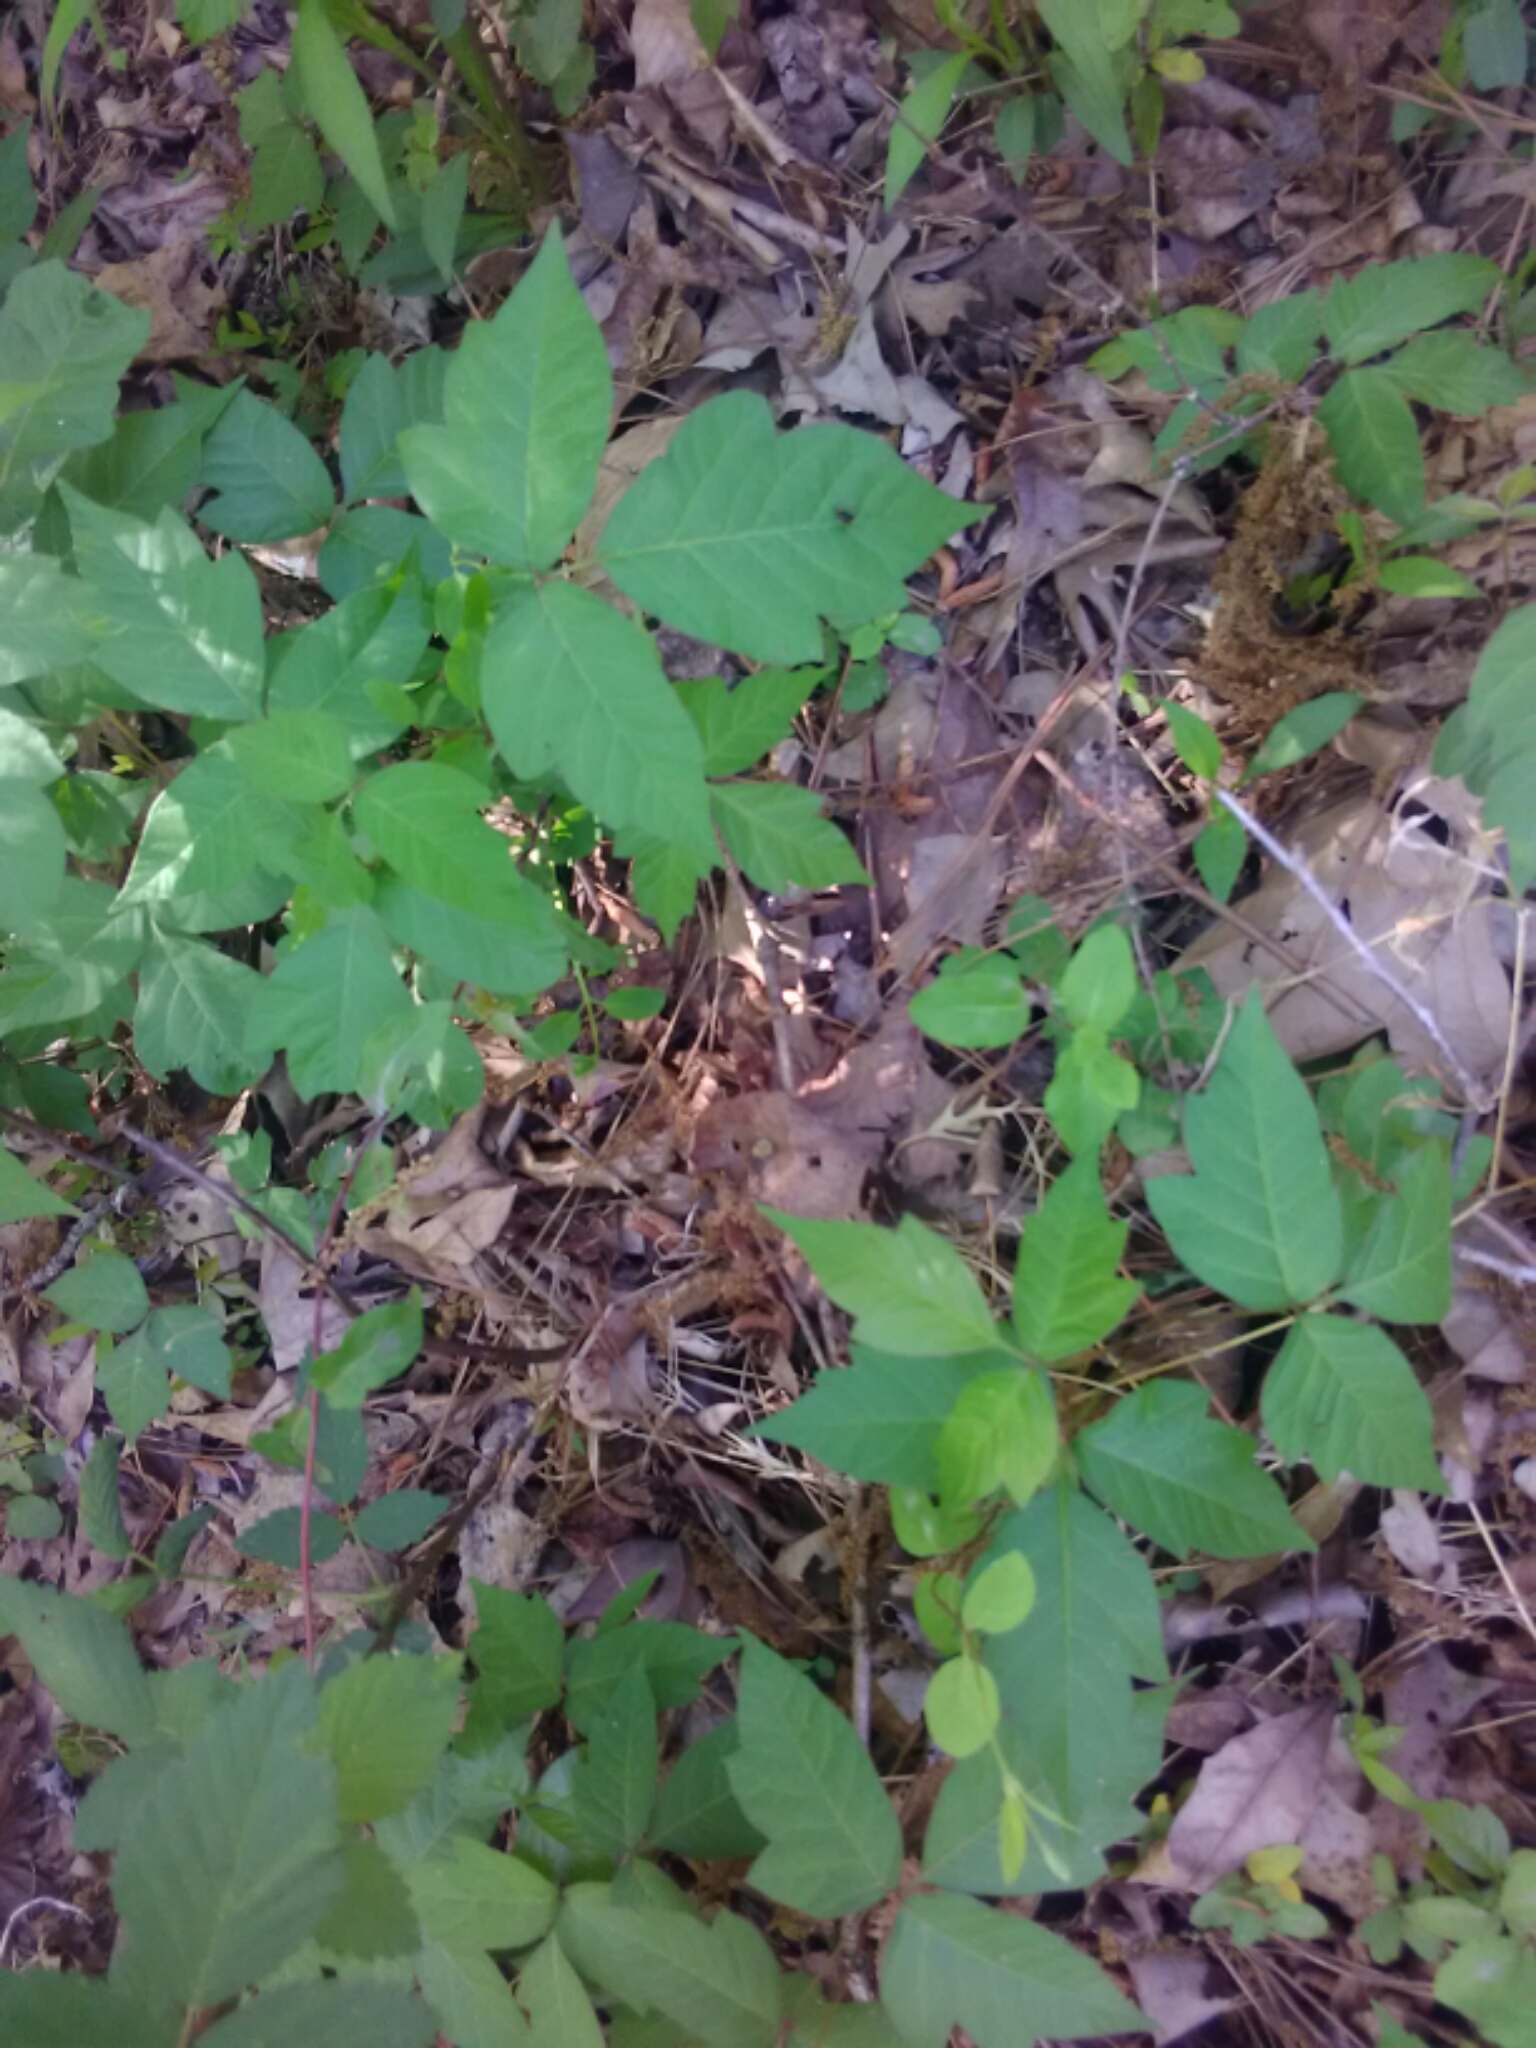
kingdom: Plantae
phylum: Tracheophyta
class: Magnoliopsida
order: Sapindales
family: Anacardiaceae
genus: Toxicodendron
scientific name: Toxicodendron radicans
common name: Poison ivy
